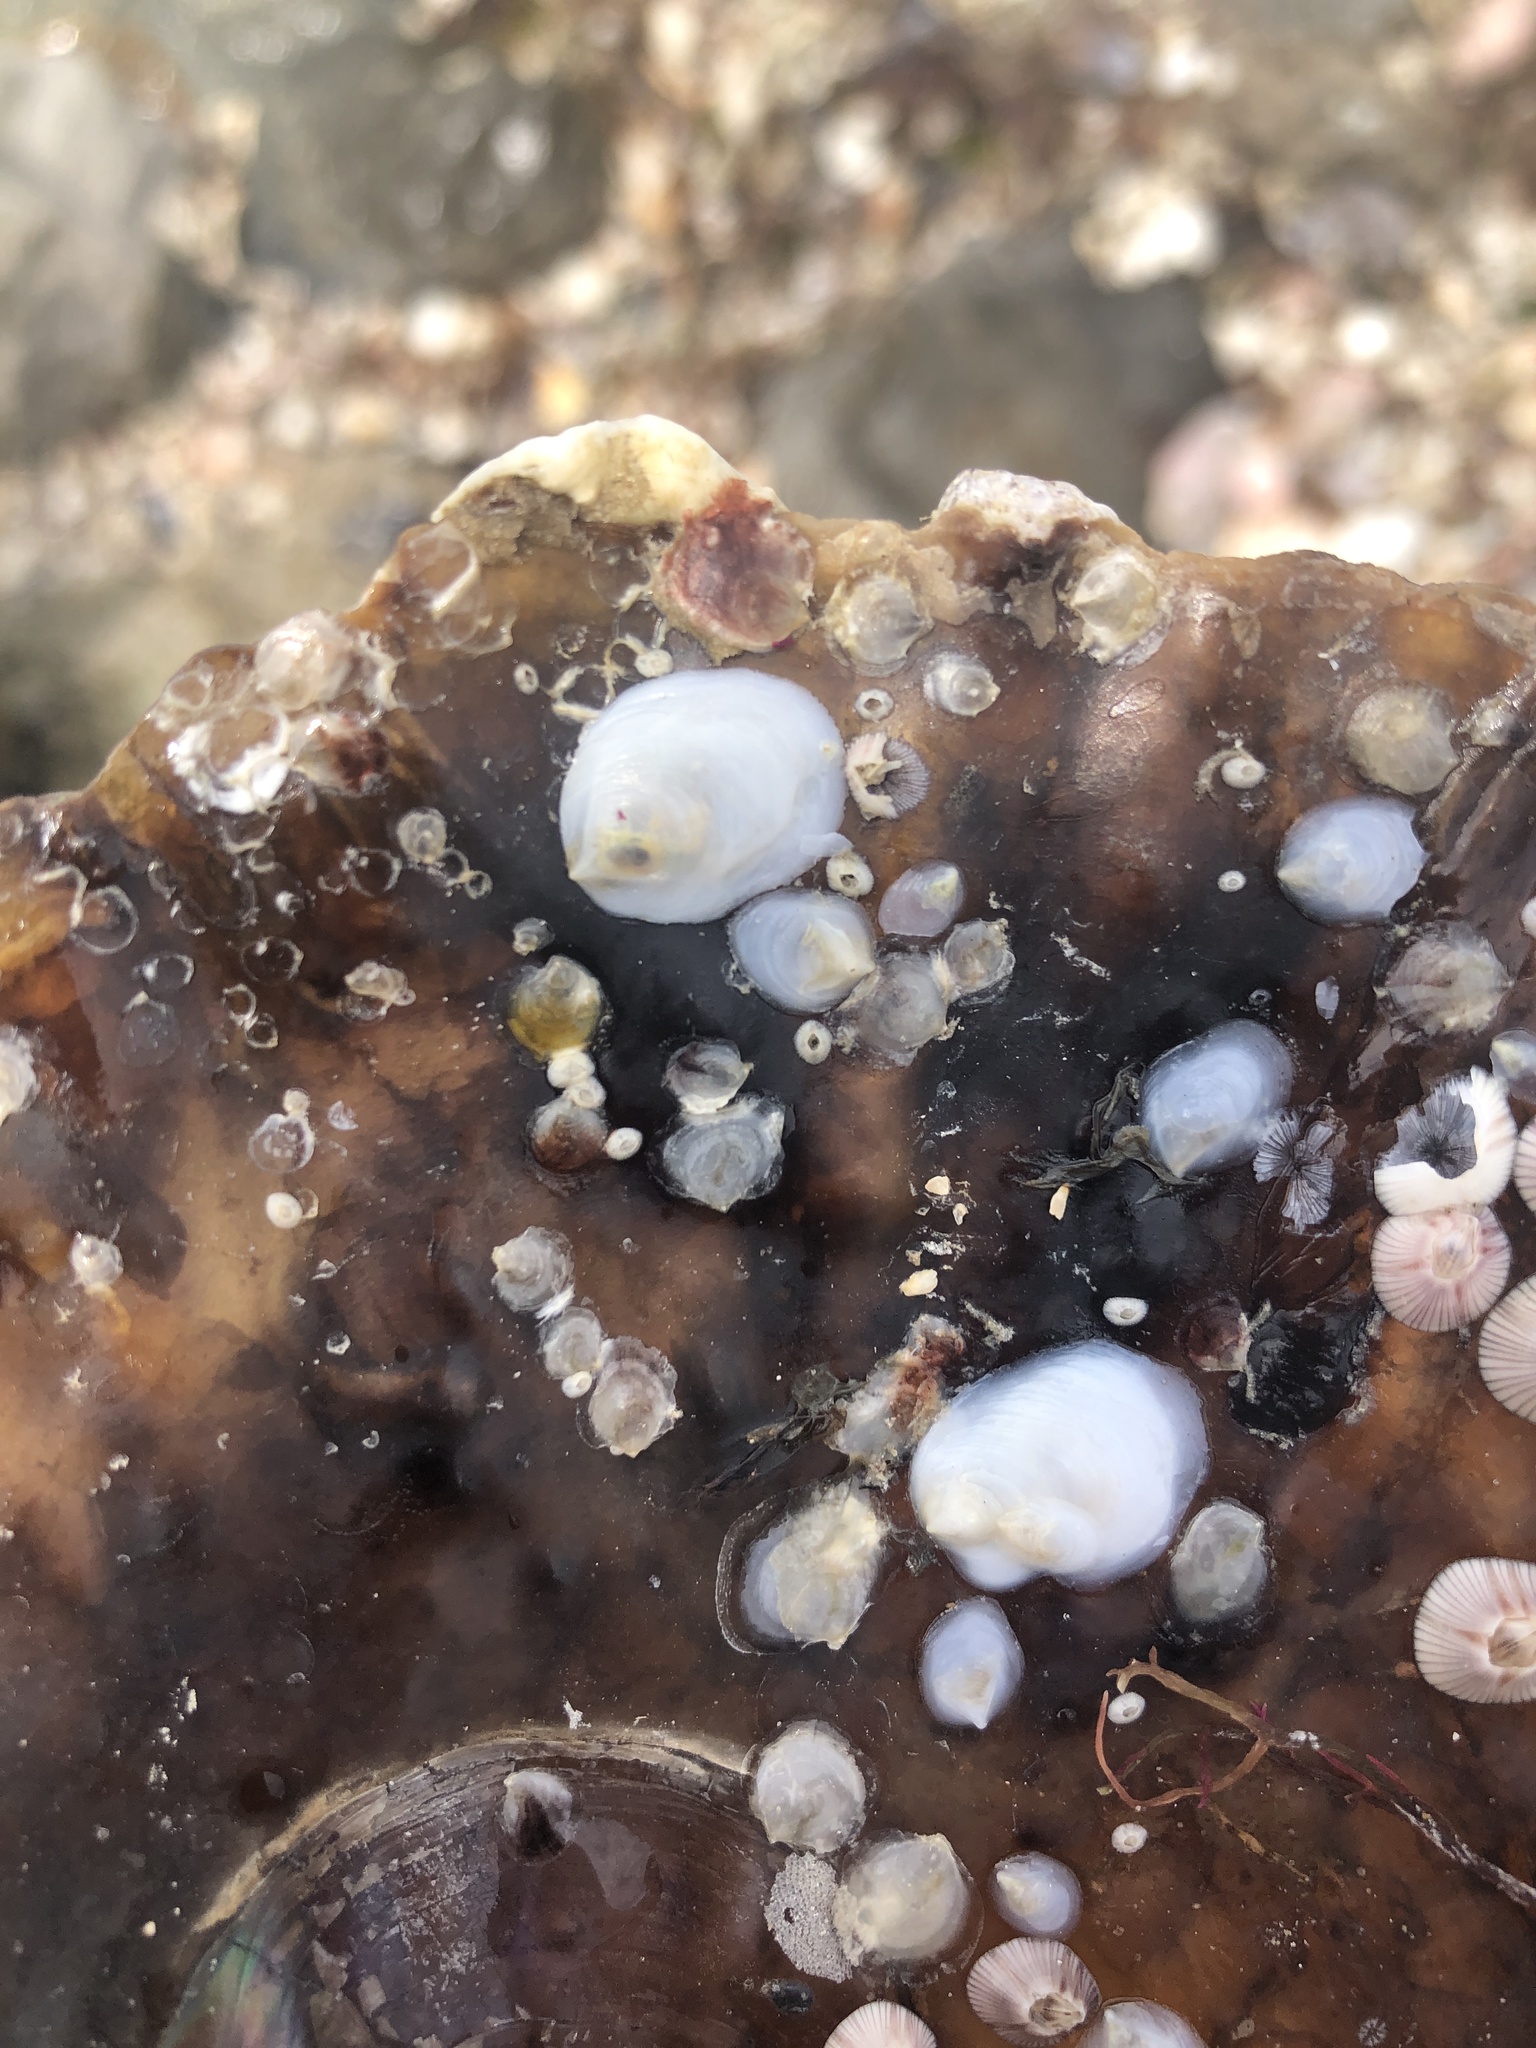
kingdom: Animalia
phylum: Mollusca
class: Gastropoda
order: Littorinimorpha
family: Calyptraeidae
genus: Crepidula
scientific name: Crepidula depressa
